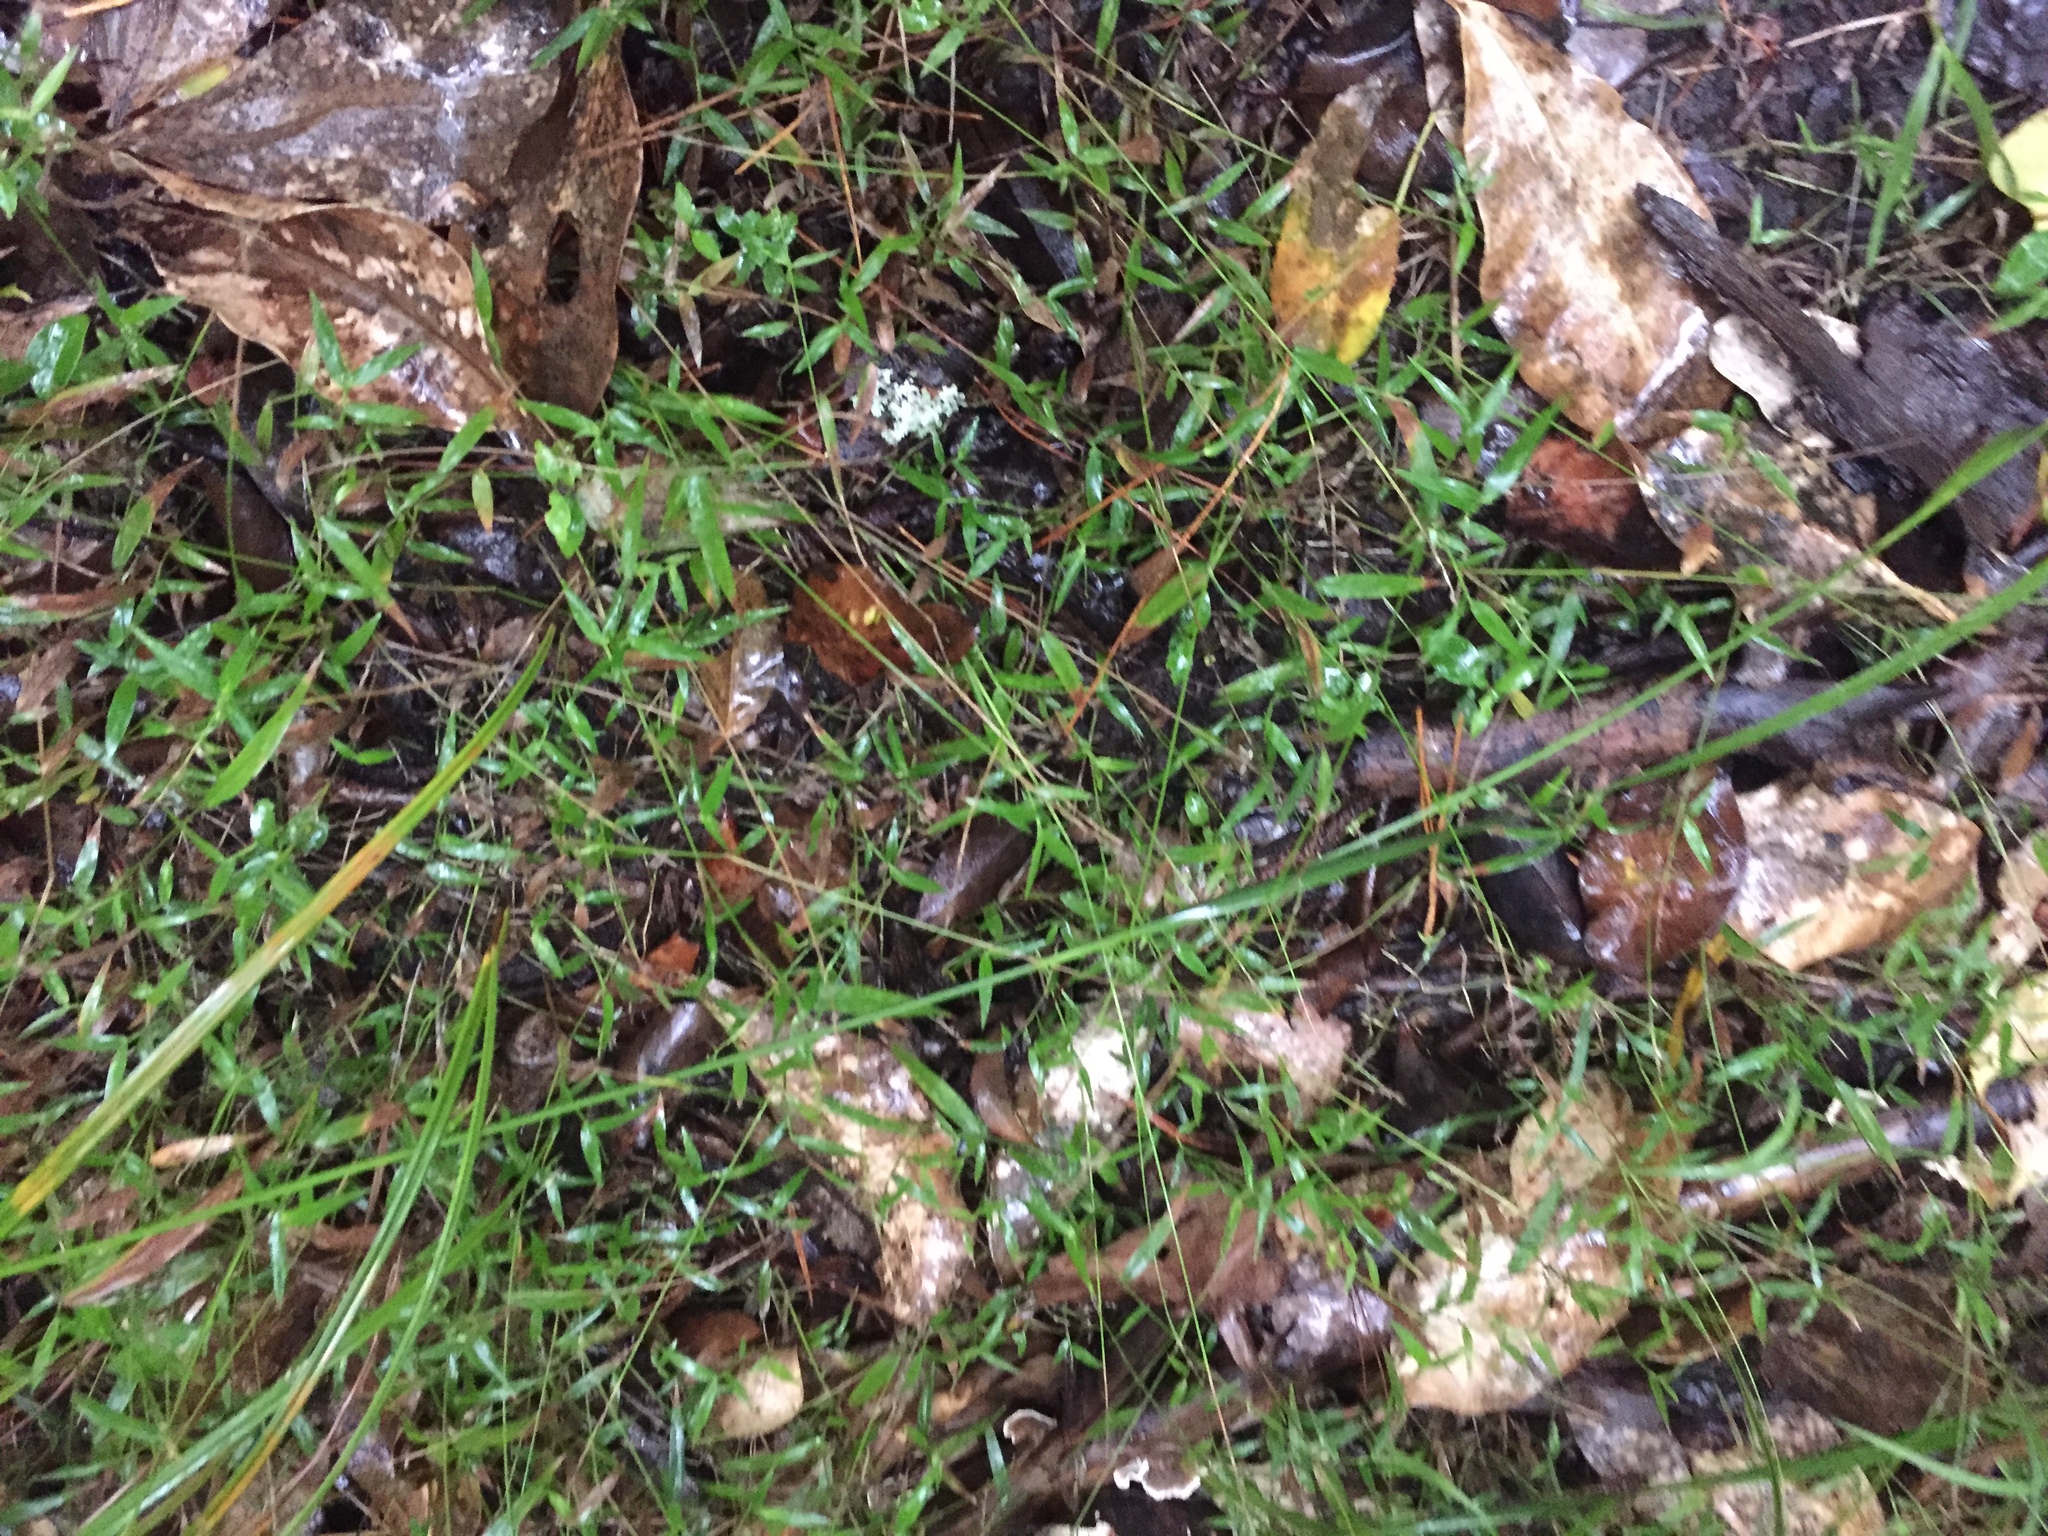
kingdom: Plantae
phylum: Tracheophyta
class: Liliopsida
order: Poales
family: Poaceae
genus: Oplismenus
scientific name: Oplismenus hirtellus
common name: Basketgrass
